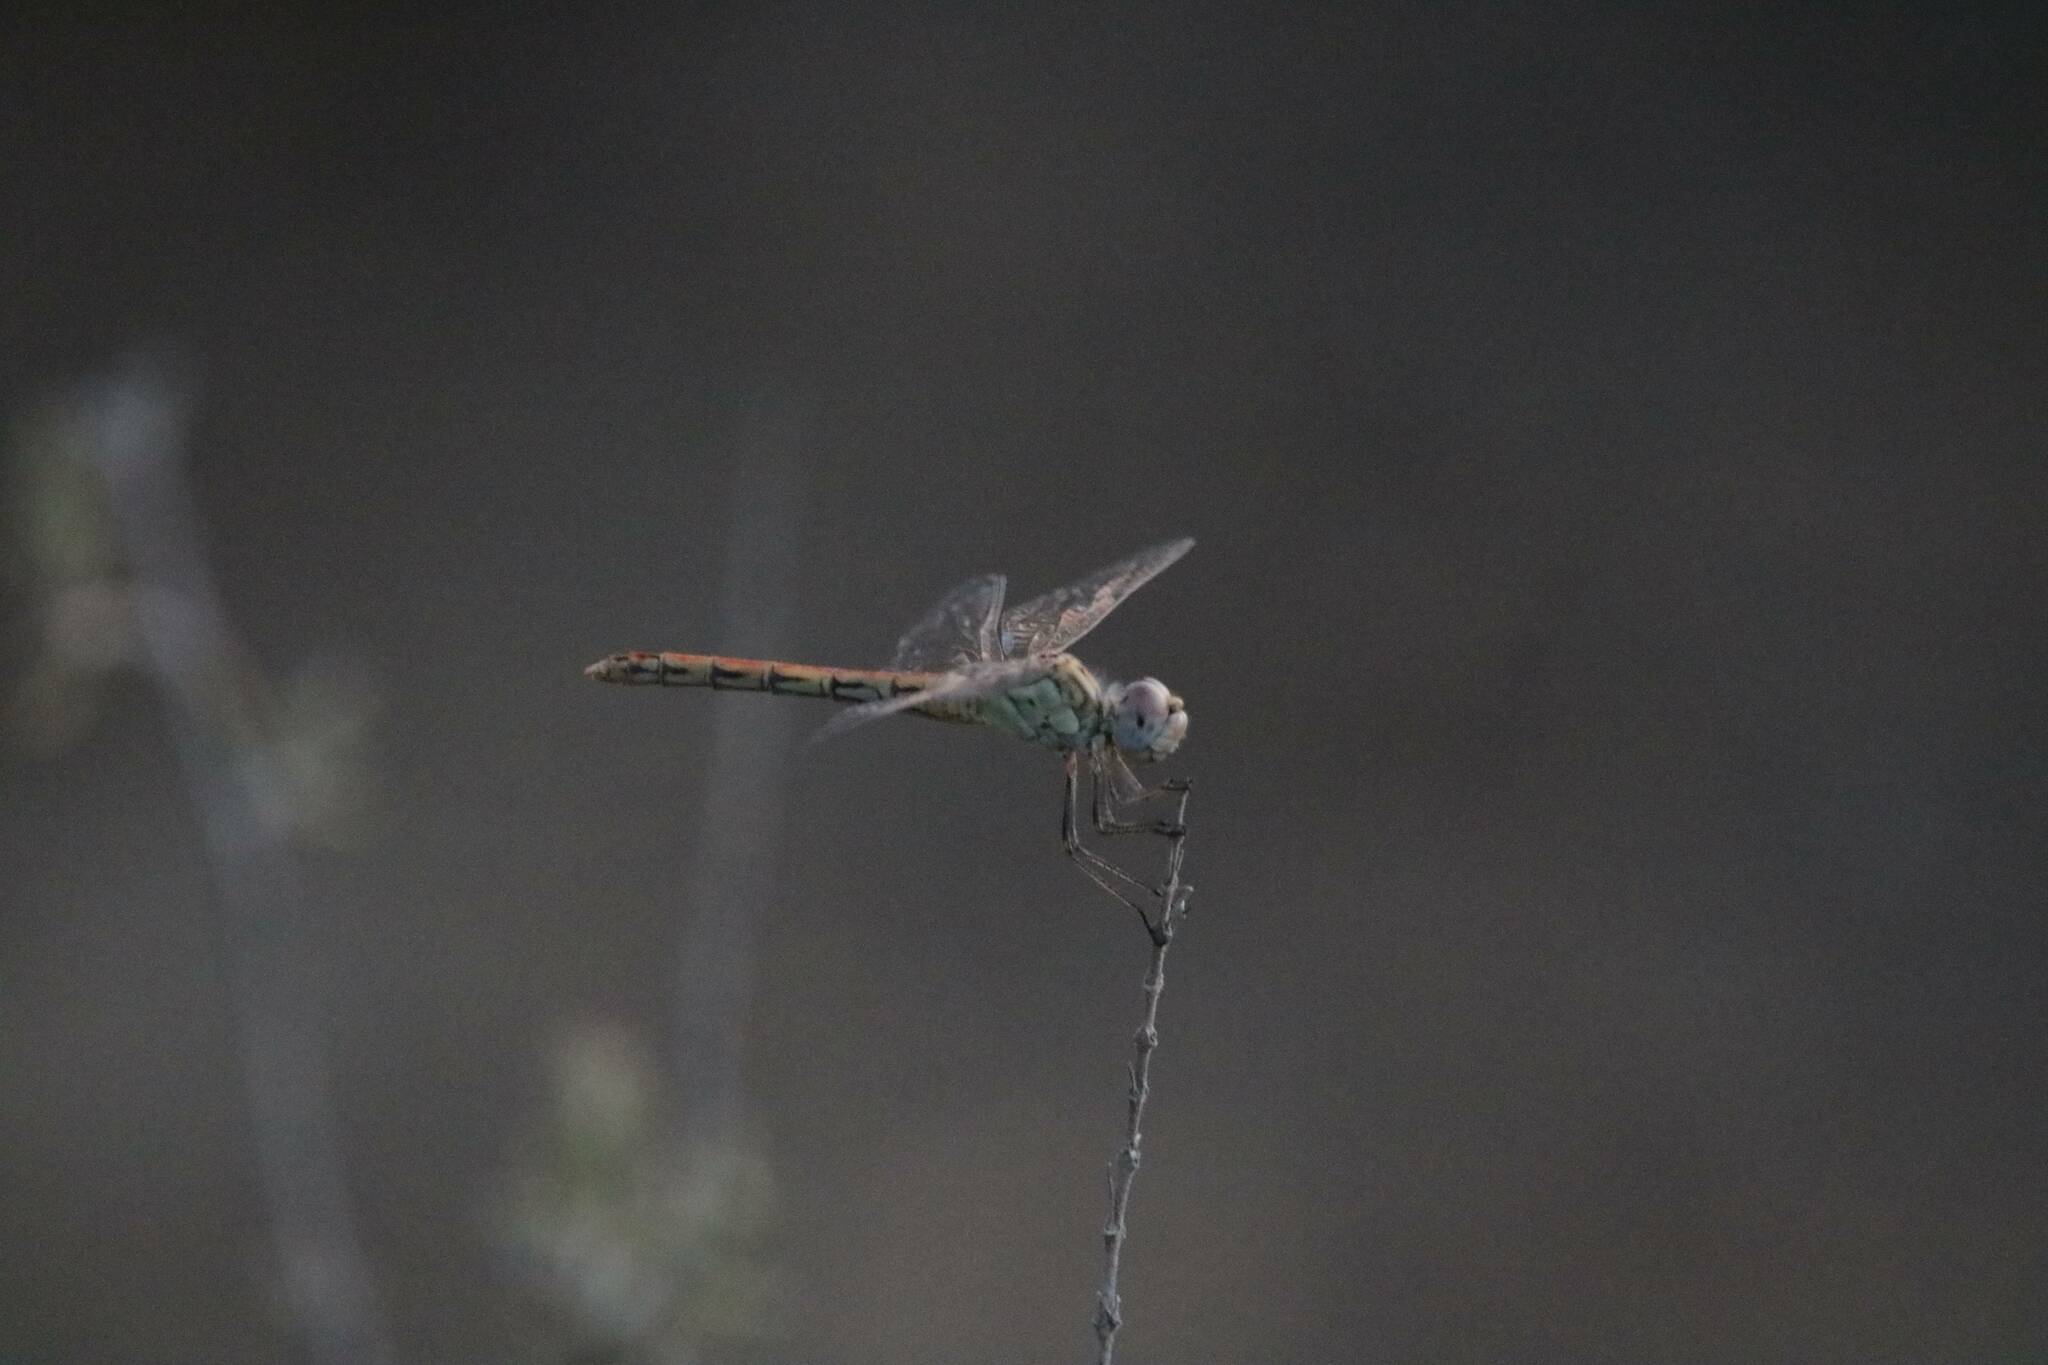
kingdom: Animalia
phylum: Arthropoda
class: Insecta
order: Odonata
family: Libellulidae
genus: Sympetrum
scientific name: Sympetrum fonscolombii
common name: Red-veined darter
